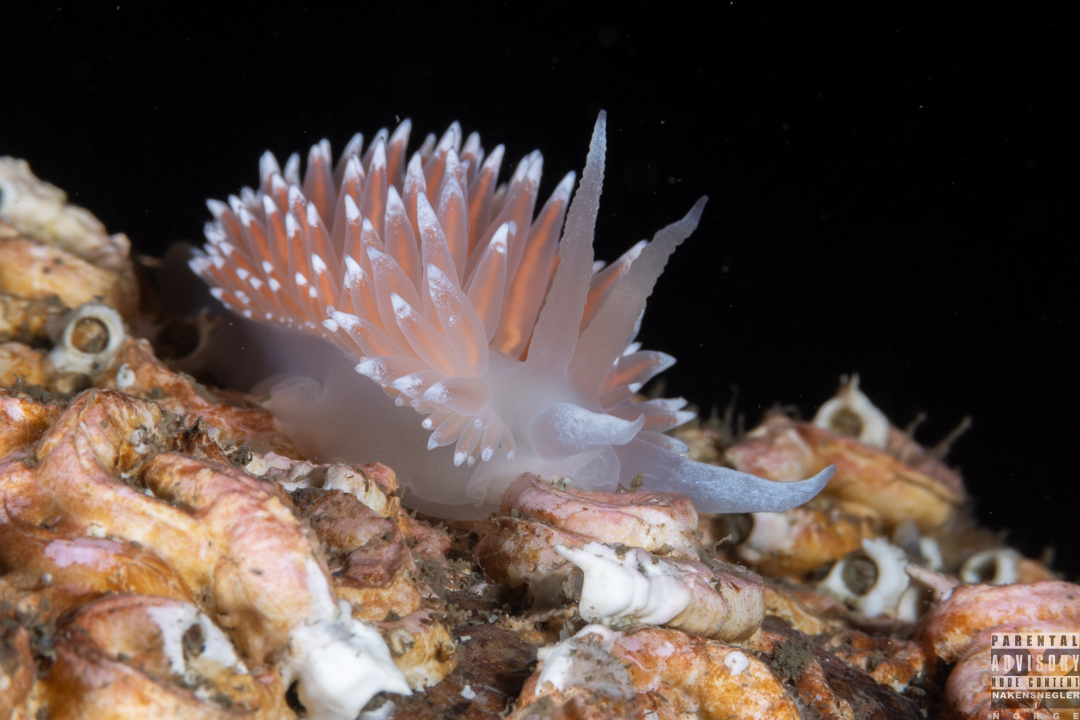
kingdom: Animalia
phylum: Mollusca
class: Gastropoda
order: Nudibranchia
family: Coryphellidae
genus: Coryphella
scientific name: Coryphella nobilis
